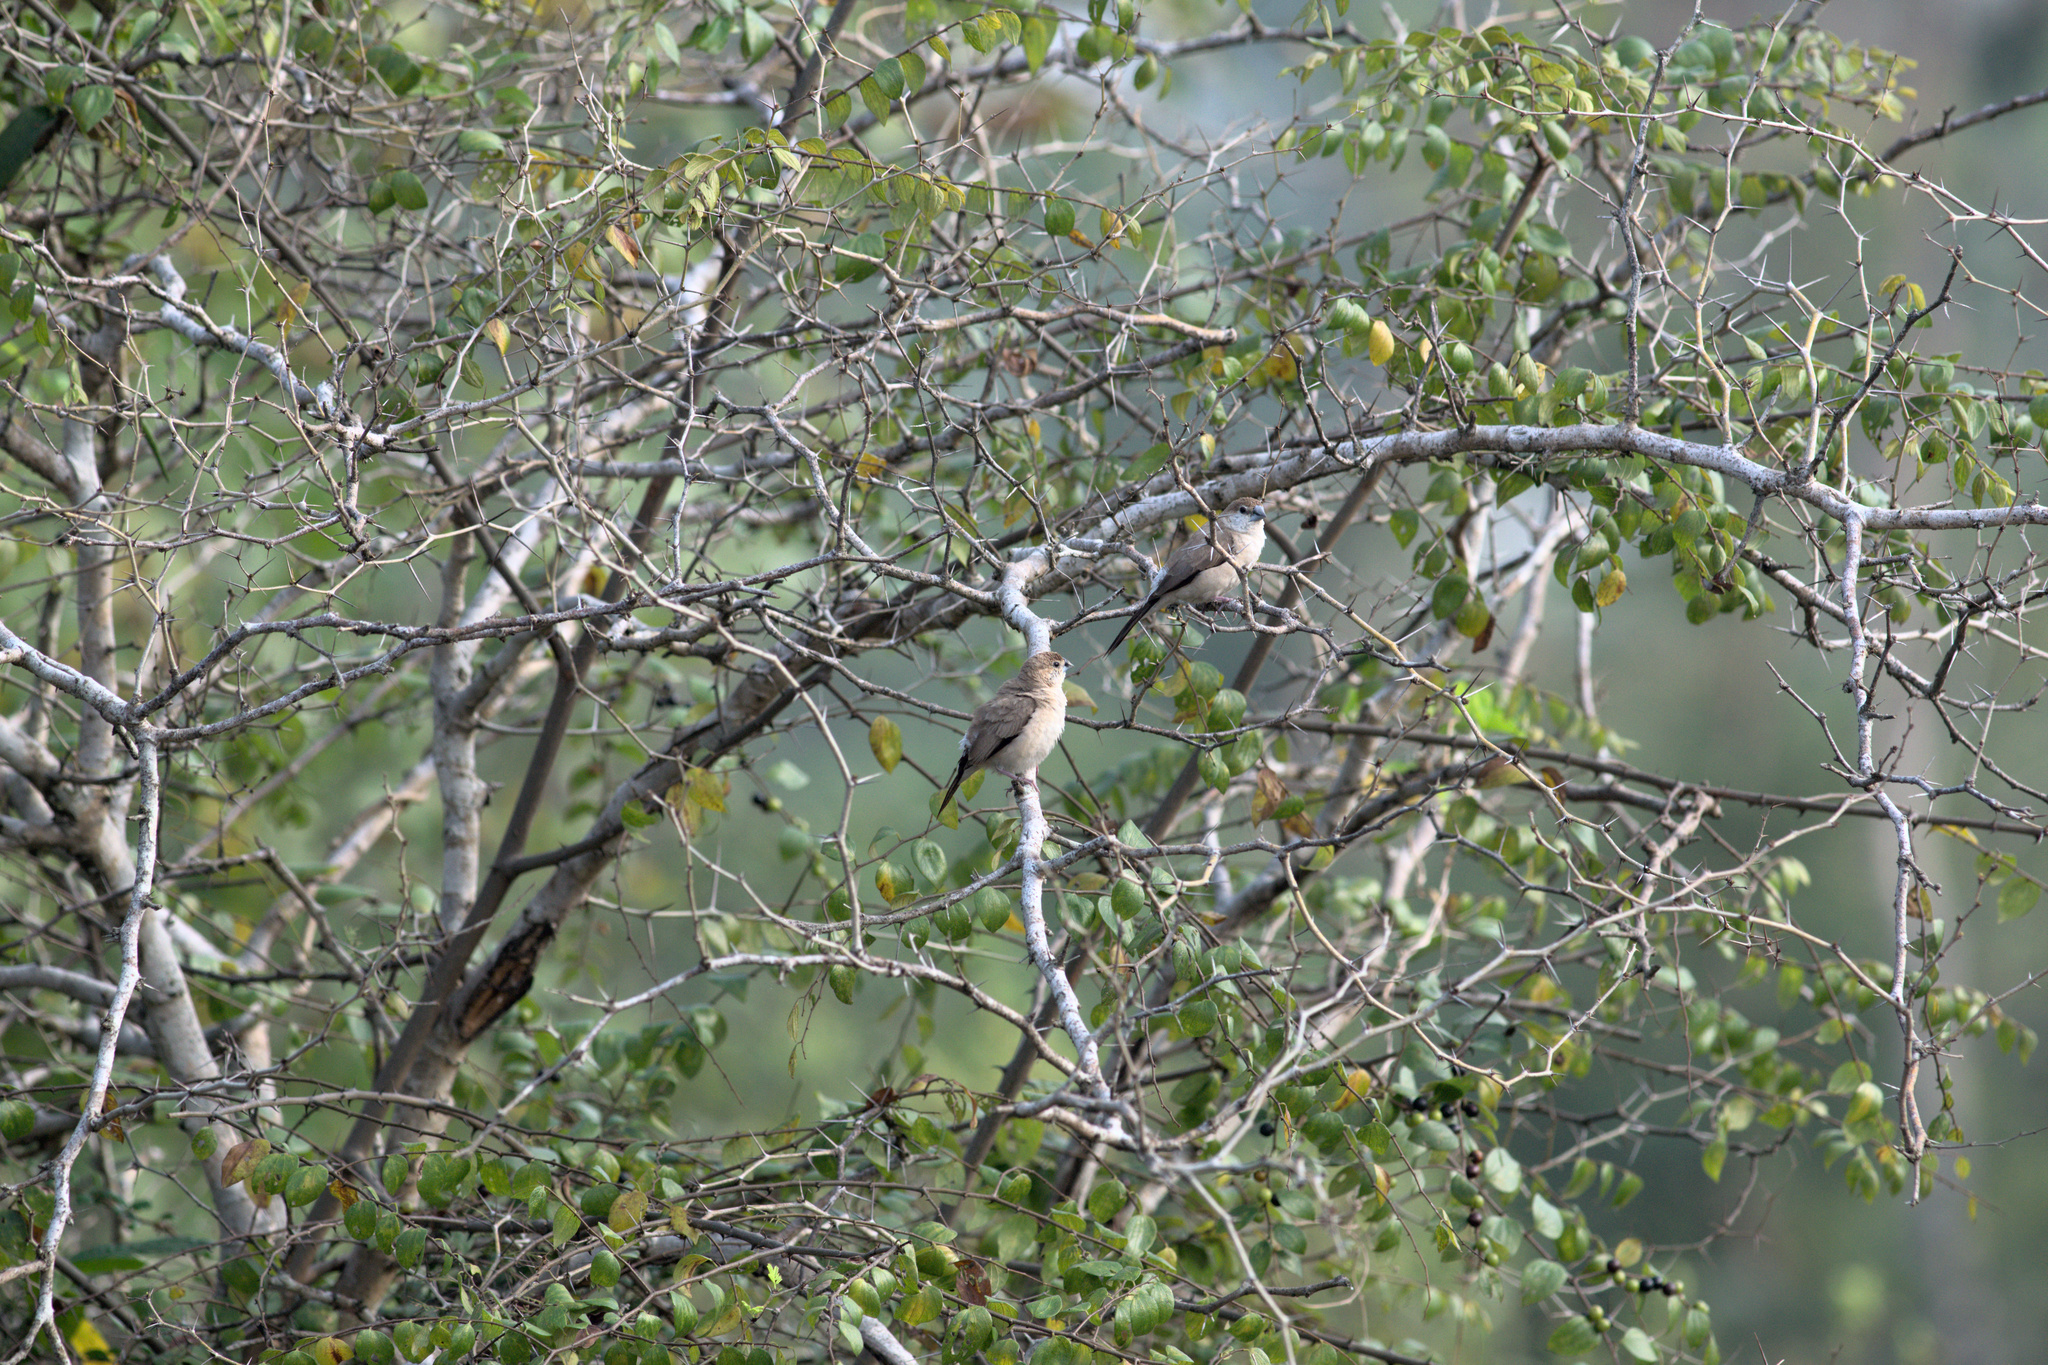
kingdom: Animalia
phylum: Chordata
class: Aves
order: Passeriformes
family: Estrildidae
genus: Euodice
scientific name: Euodice malabarica
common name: Indian silverbill
